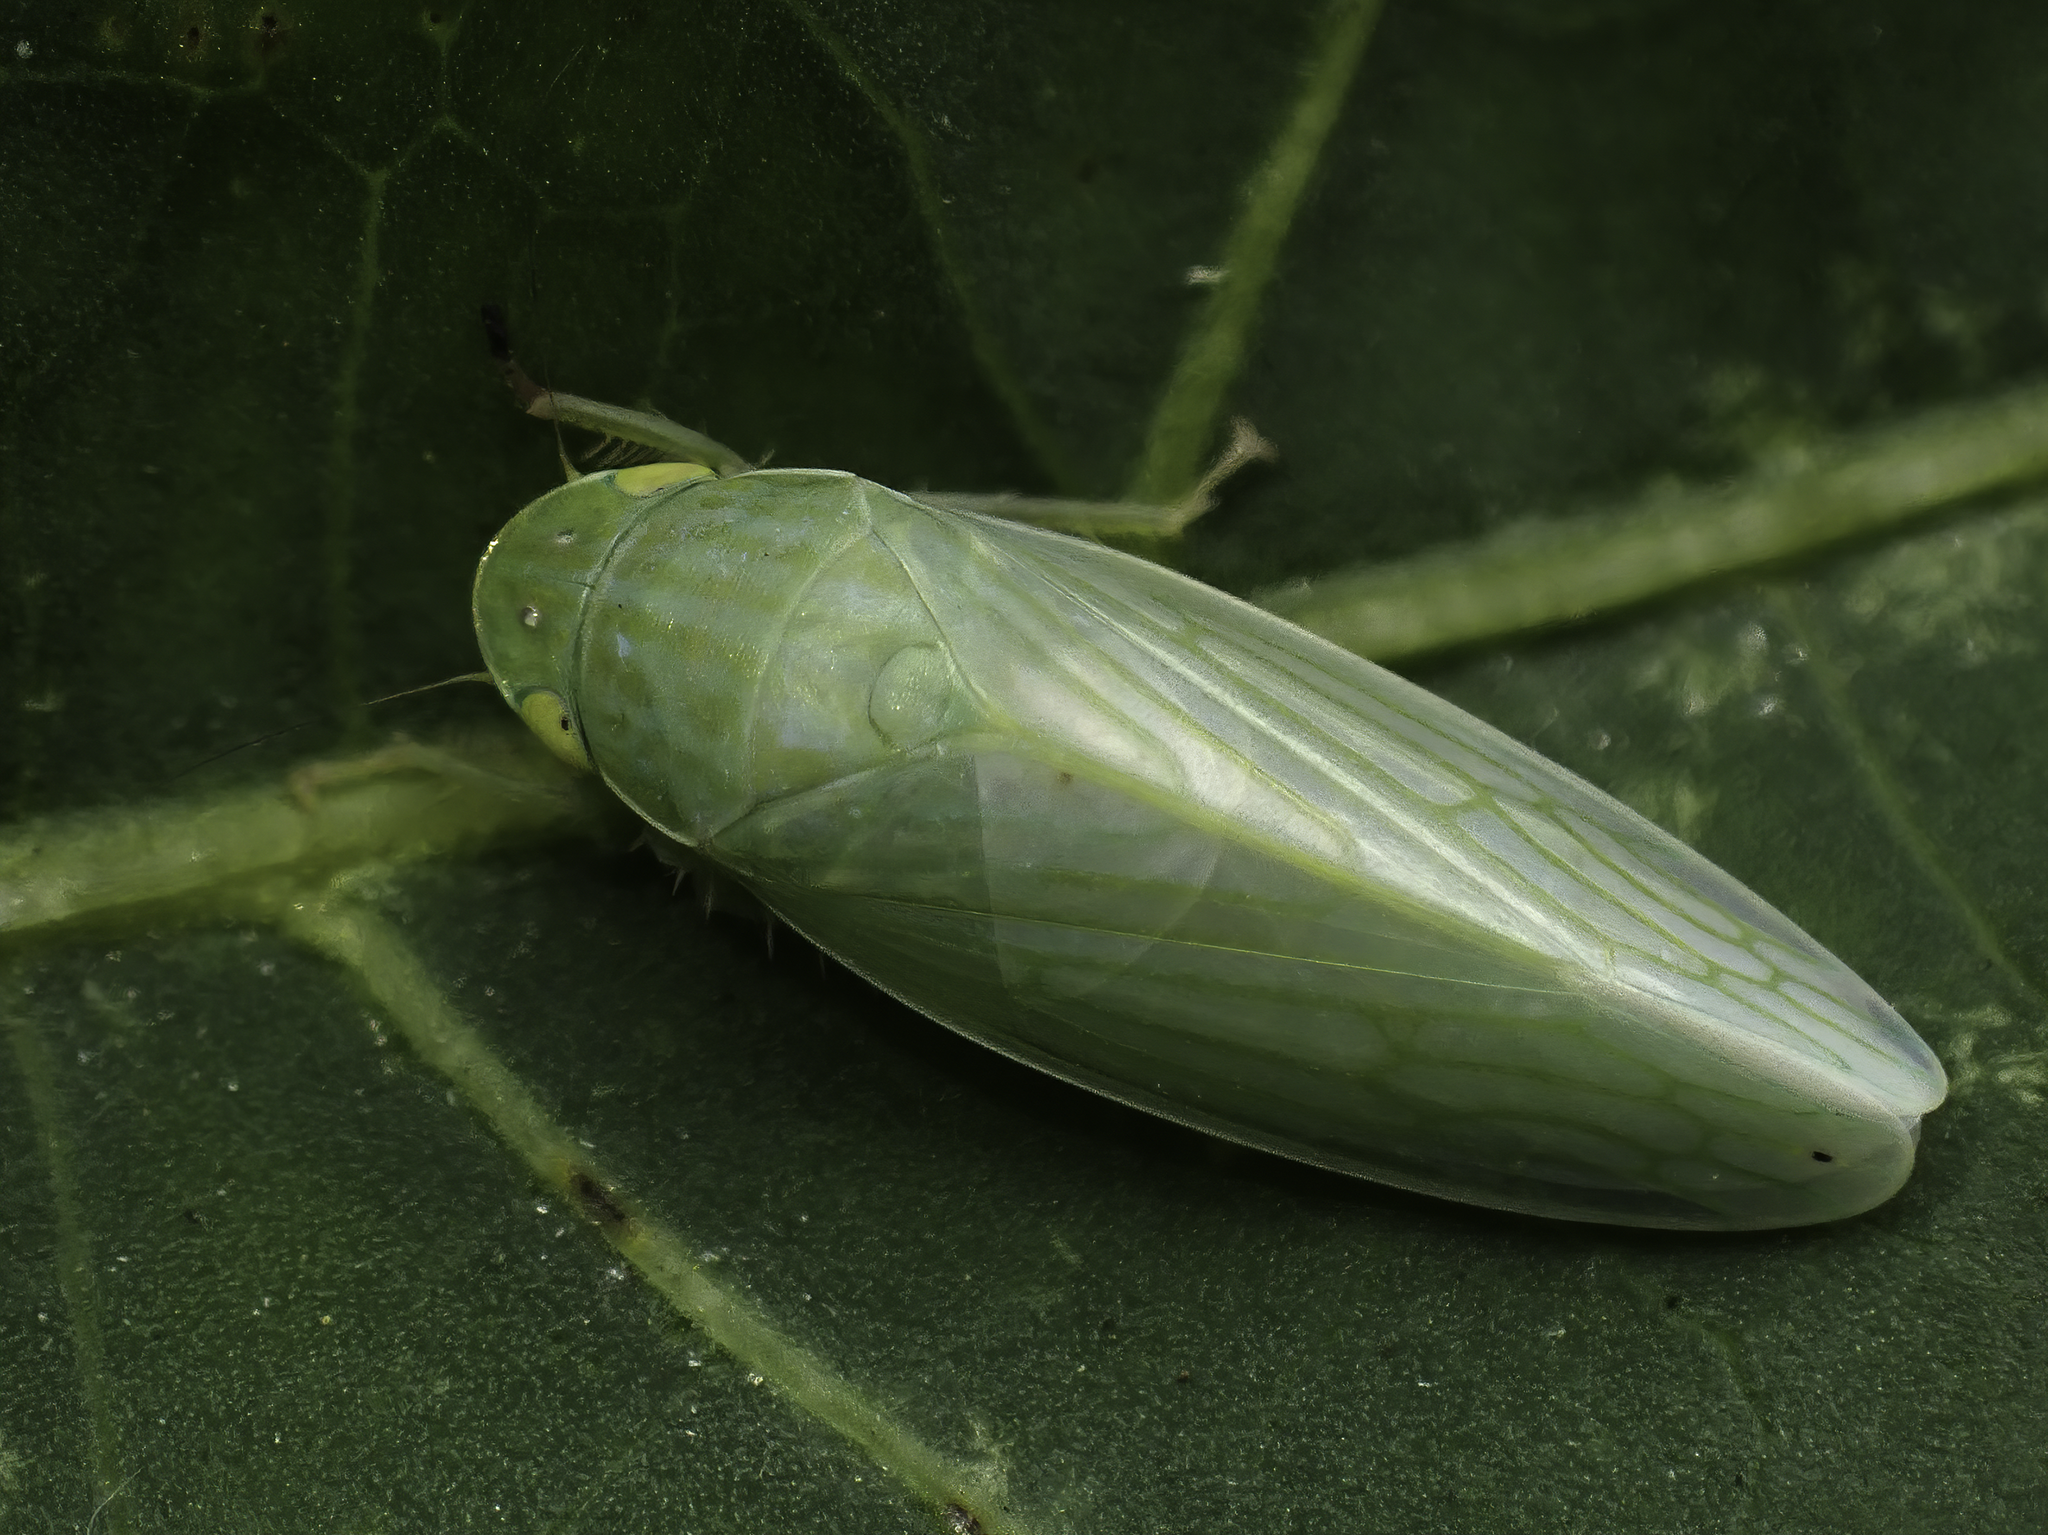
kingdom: Animalia
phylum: Arthropoda
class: Insecta
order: Hemiptera
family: Cicadellidae
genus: Gyponana
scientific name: Gyponana tenella
